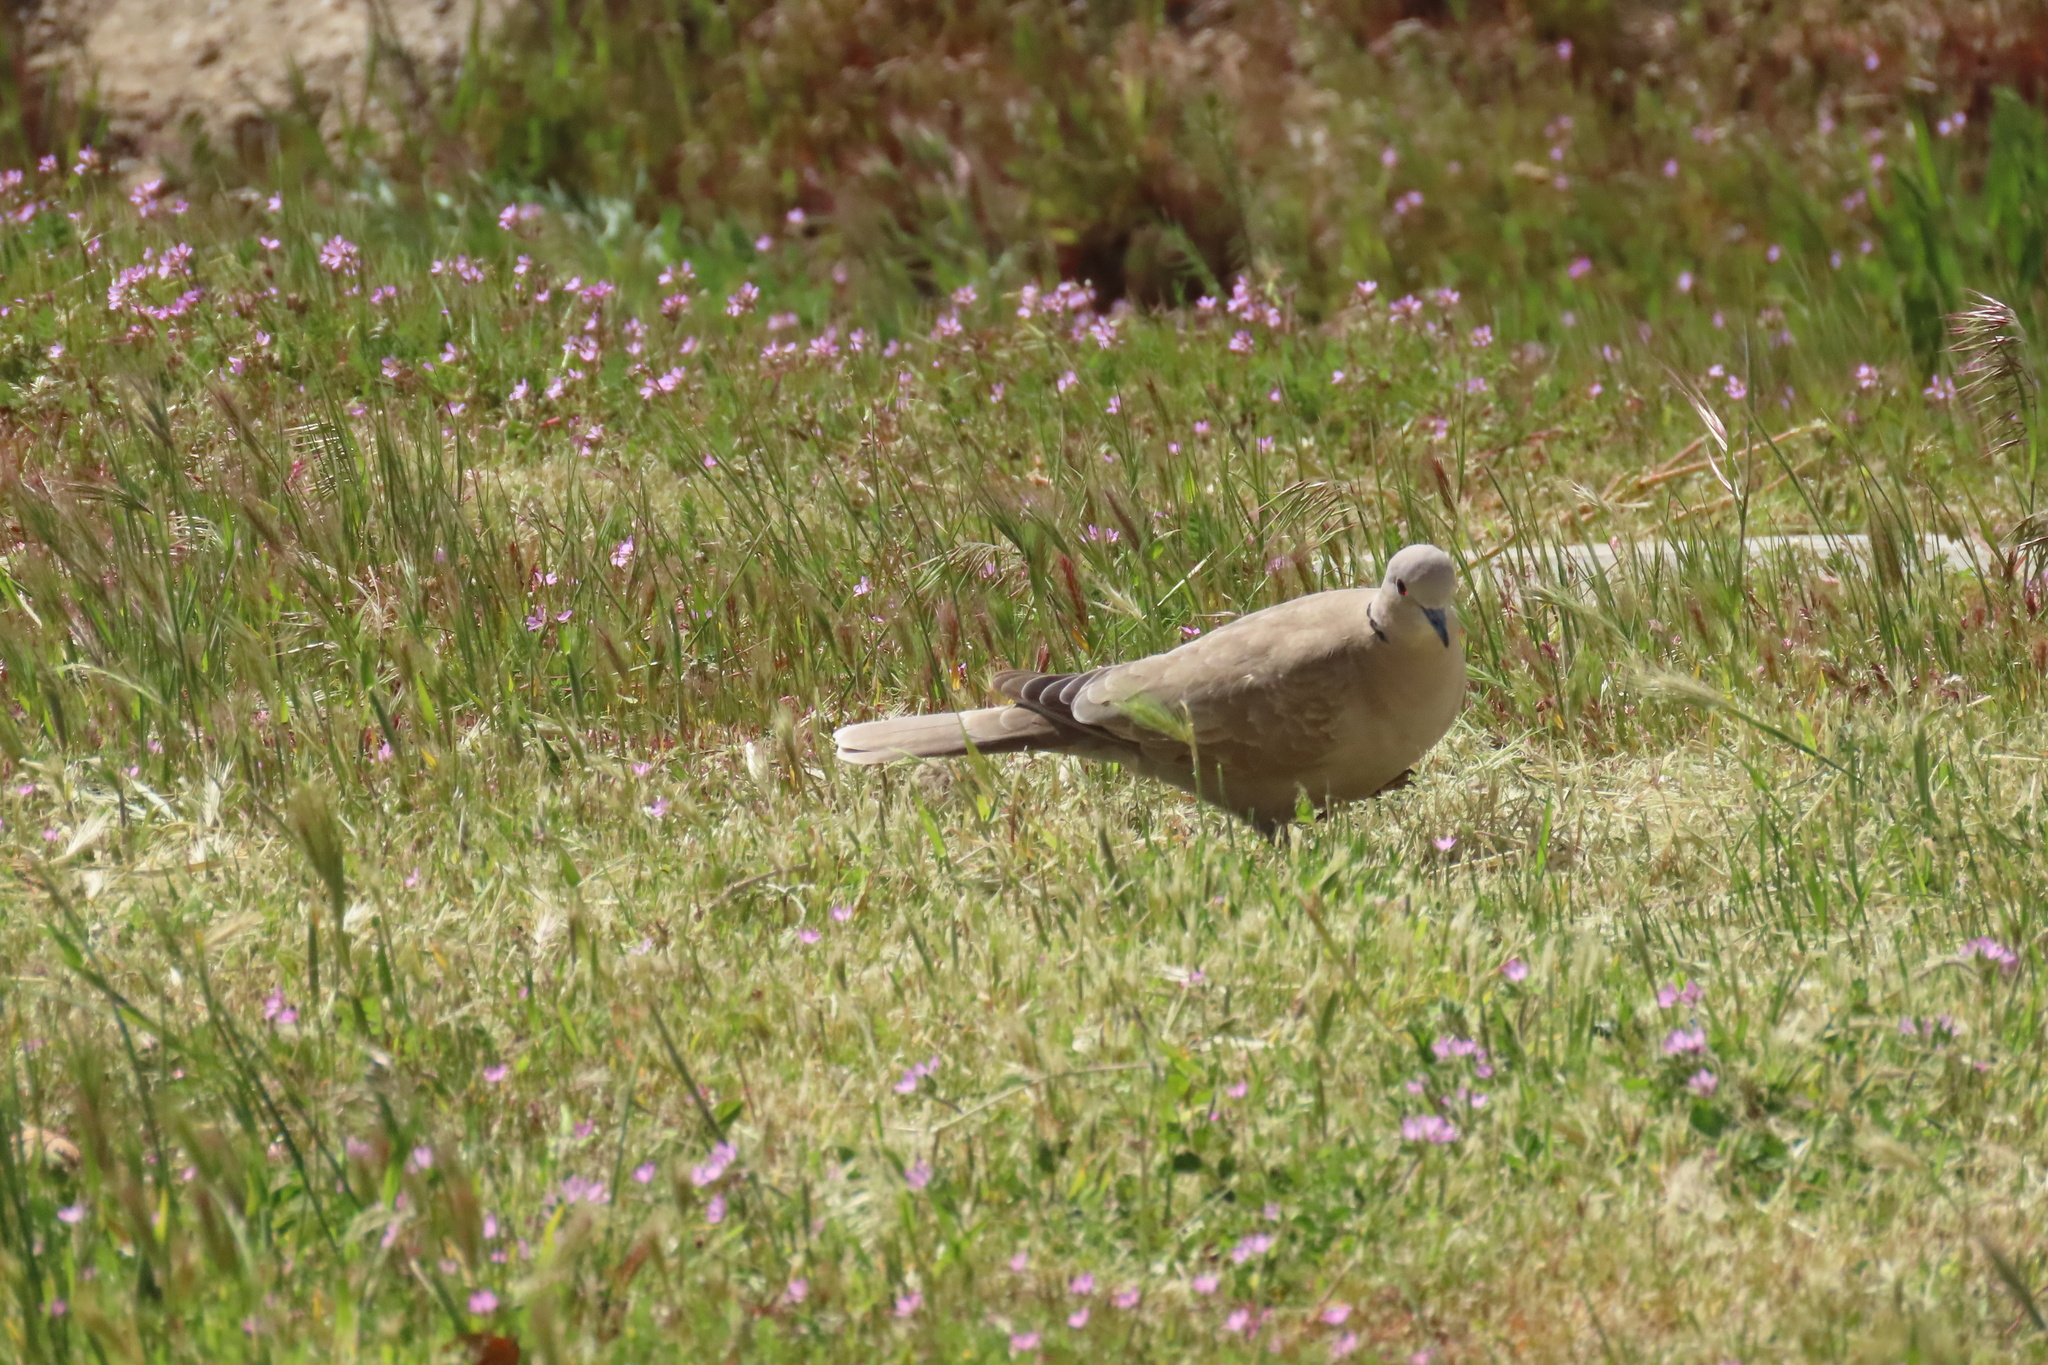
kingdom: Animalia
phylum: Chordata
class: Aves
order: Columbiformes
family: Columbidae
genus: Streptopelia
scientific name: Streptopelia decaocto
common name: Eurasian collared dove
